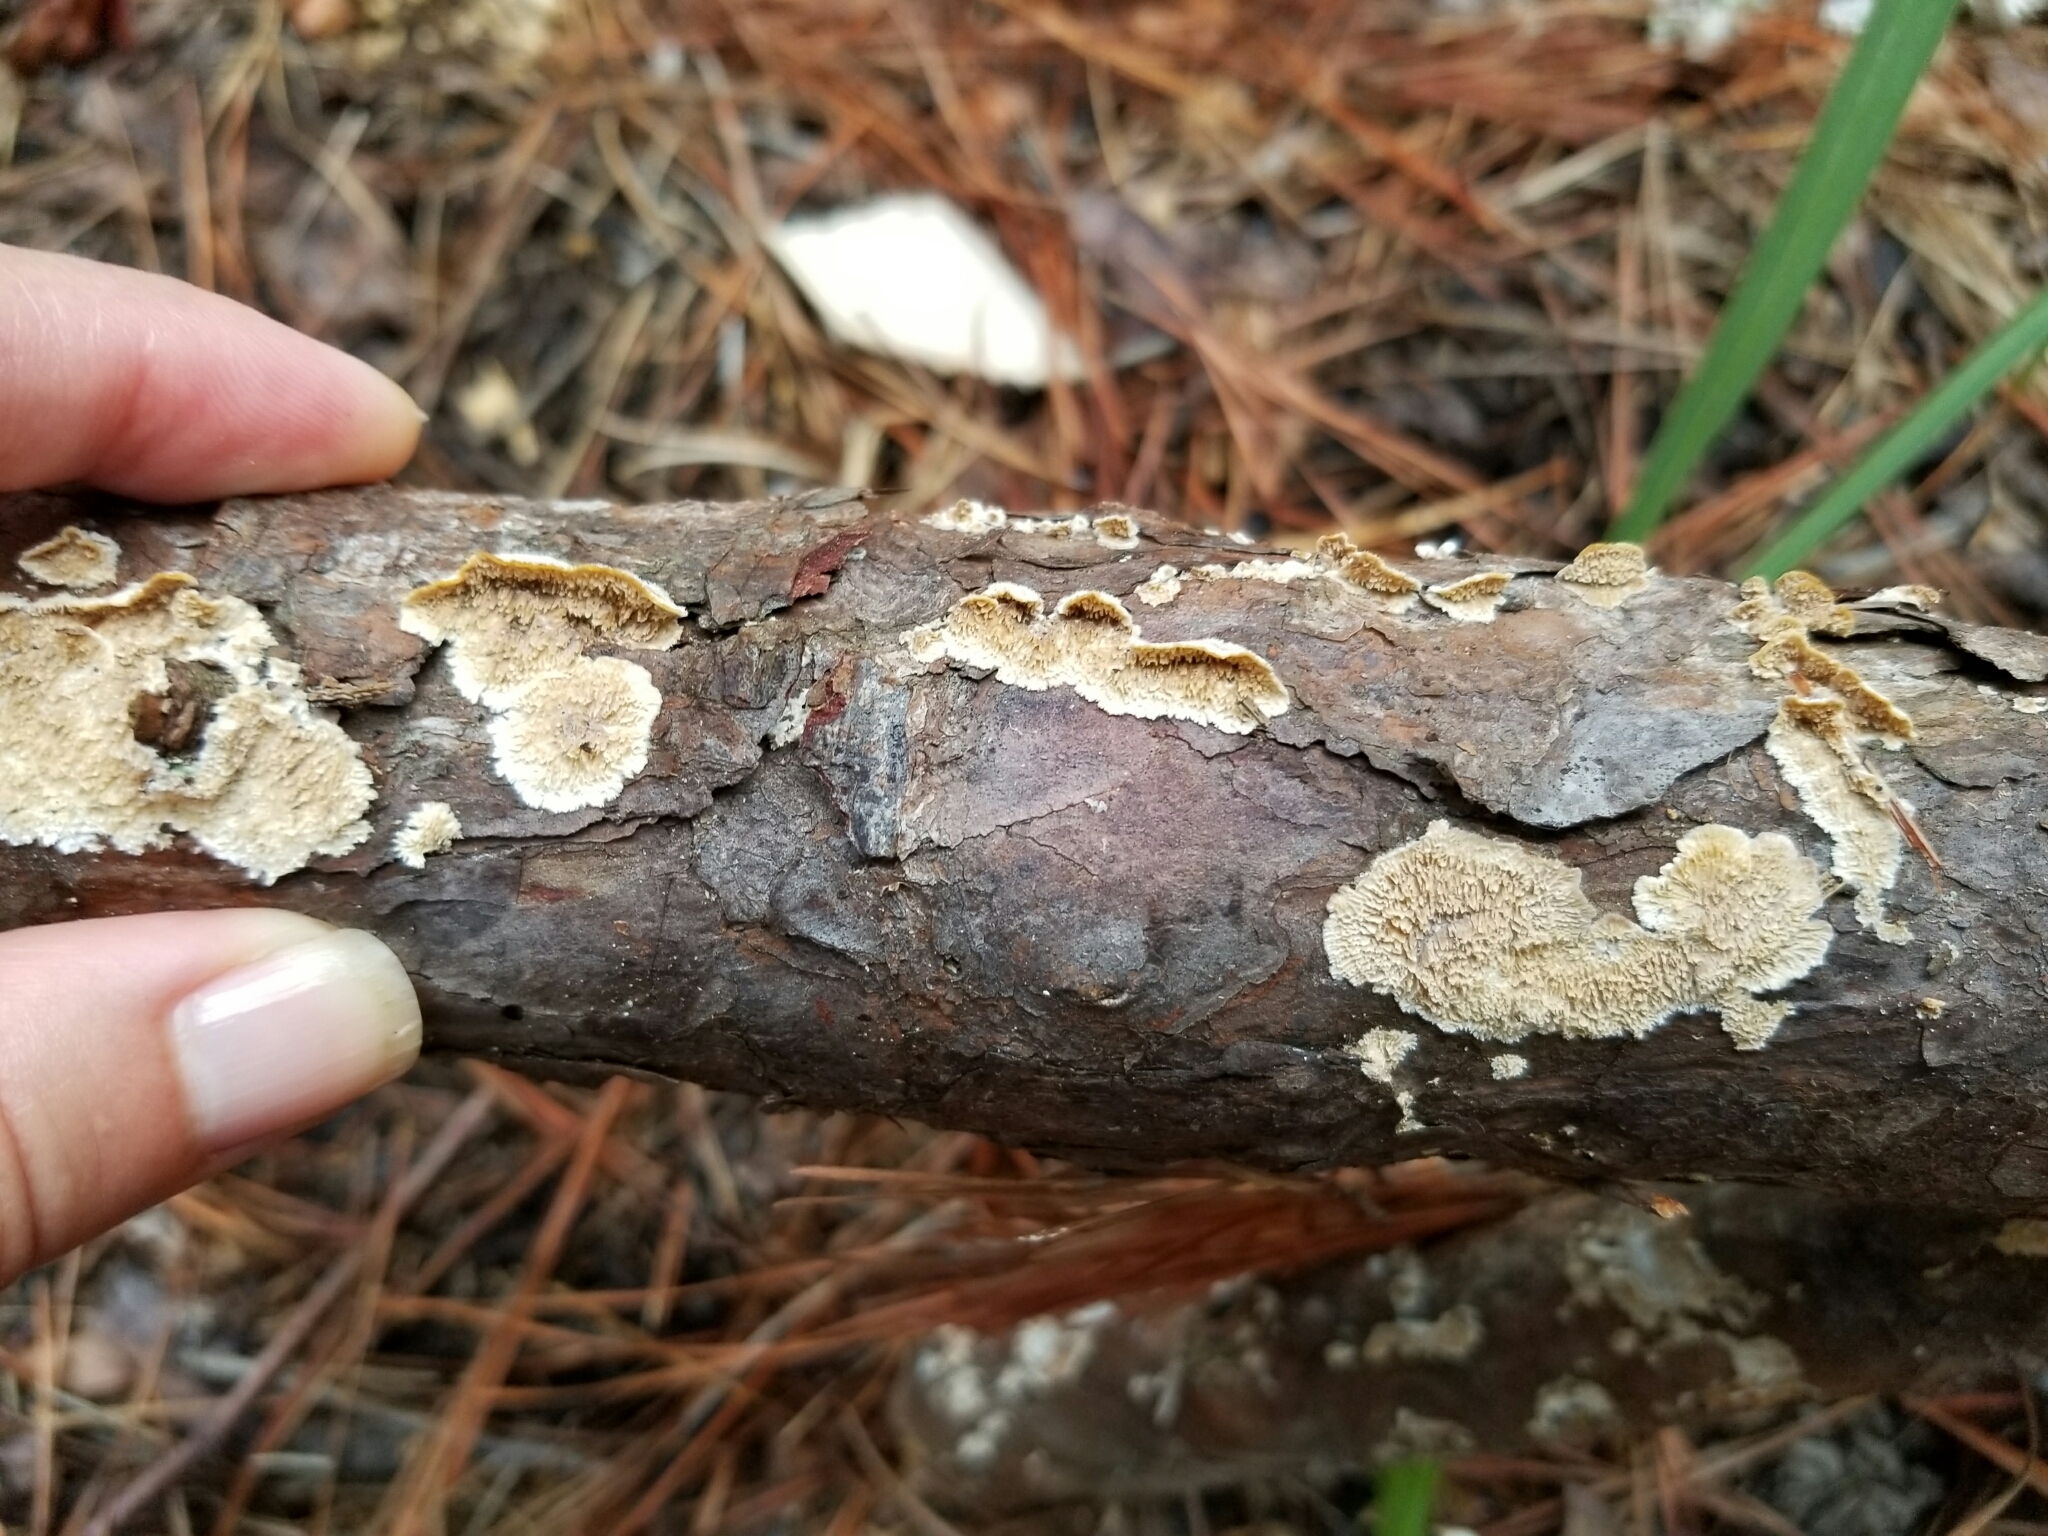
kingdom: Fungi
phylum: Basidiomycota
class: Agaricomycetes
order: Polyporales
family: Irpicaceae
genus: Irpex
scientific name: Irpex lacteus
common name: Milk-white toothed polypore
